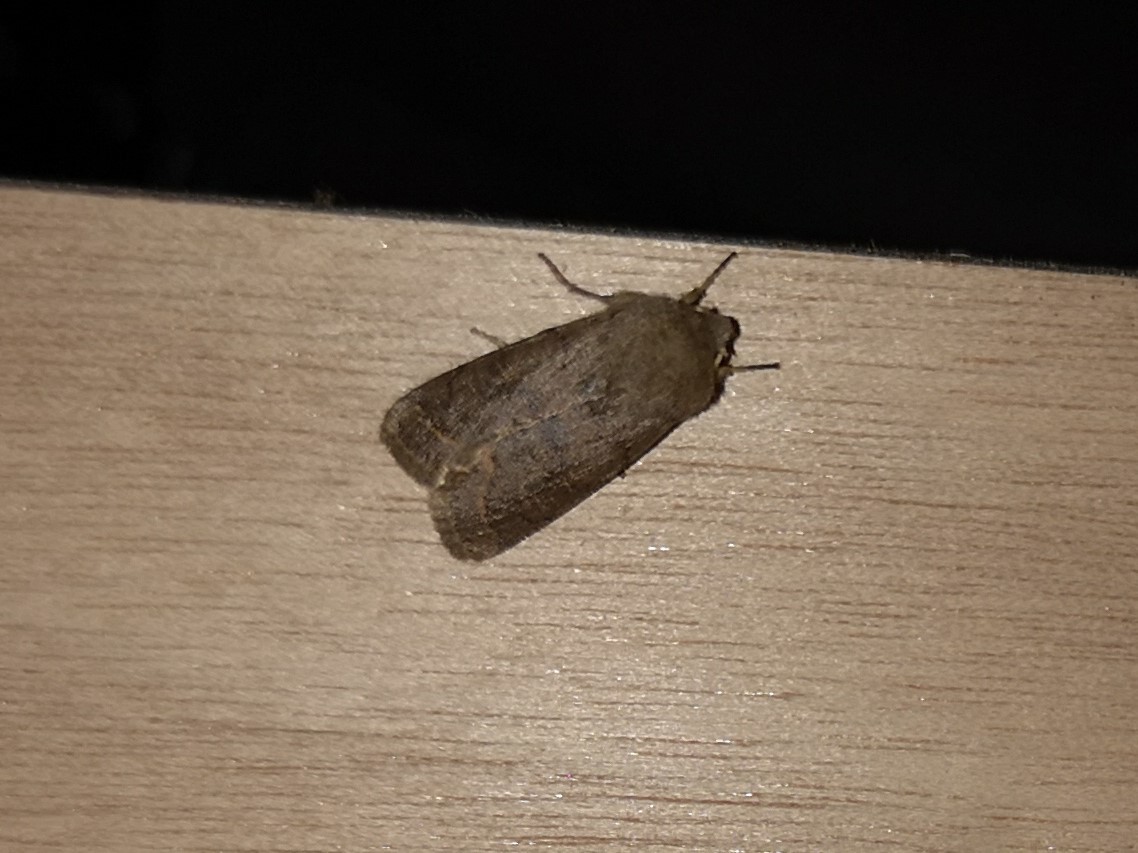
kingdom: Animalia
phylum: Arthropoda
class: Insecta
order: Lepidoptera
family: Noctuidae
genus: Orthosia
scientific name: Orthosia cerasi
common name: Common quaker
